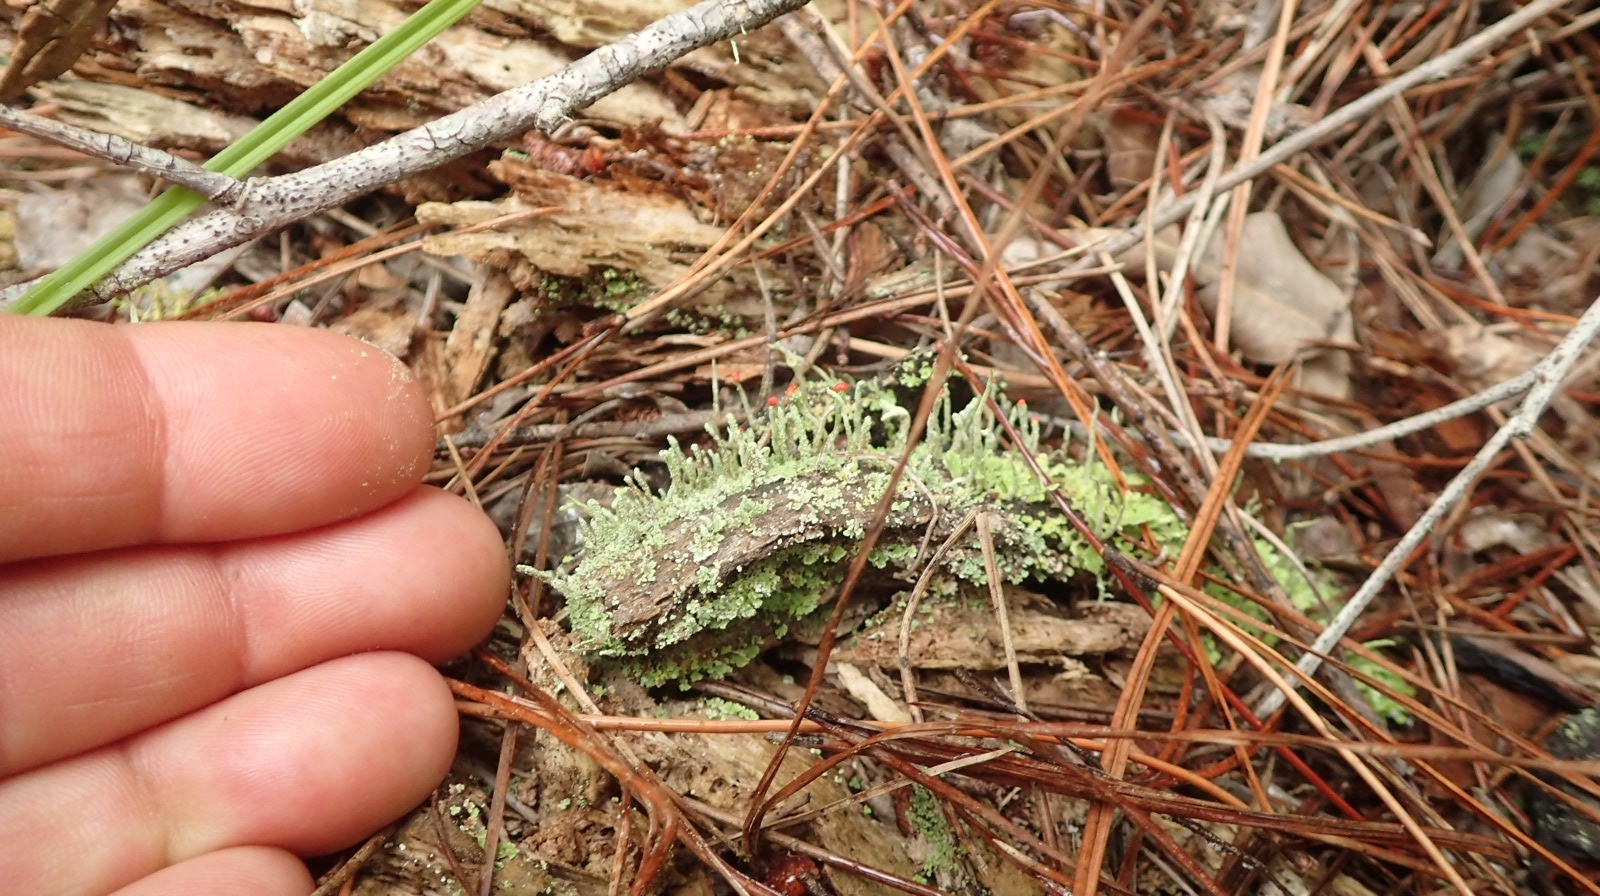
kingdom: Fungi
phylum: Ascomycota
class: Lecanoromycetes
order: Lecanorales
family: Cladoniaceae
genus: Cladonia
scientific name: Cladonia macilenta
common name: Lipstick powderhorn
